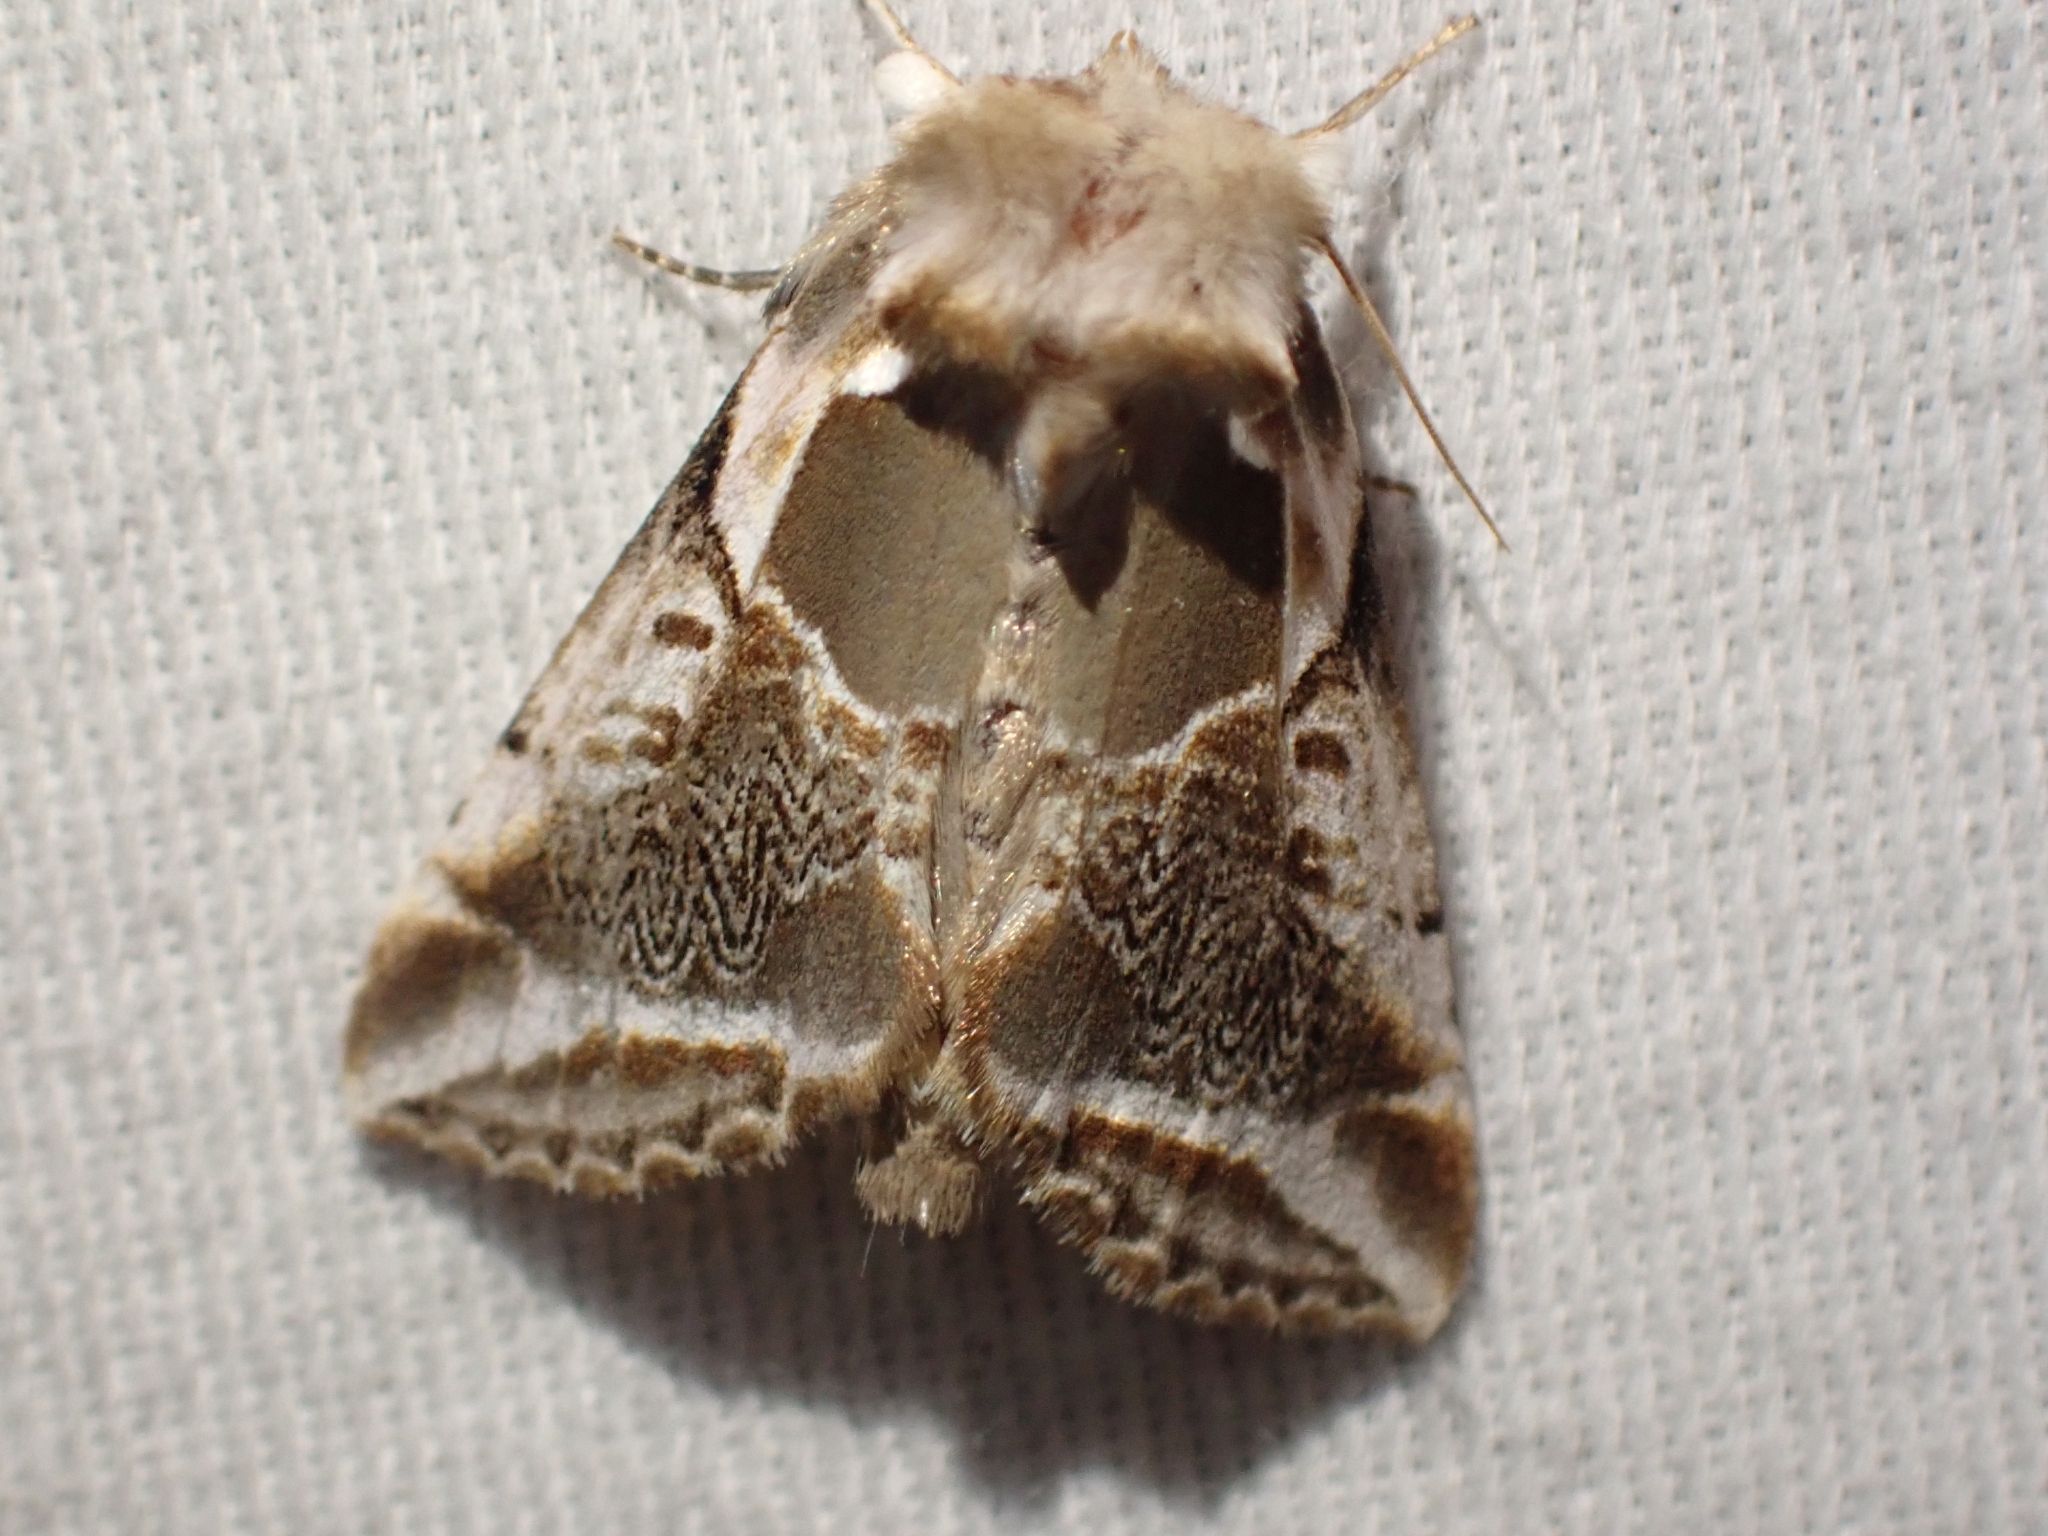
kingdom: Animalia
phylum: Arthropoda
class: Insecta
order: Lepidoptera
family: Drepanidae
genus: Habrosyne
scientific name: Habrosyne scripta
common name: Lettered habrosyne moth
